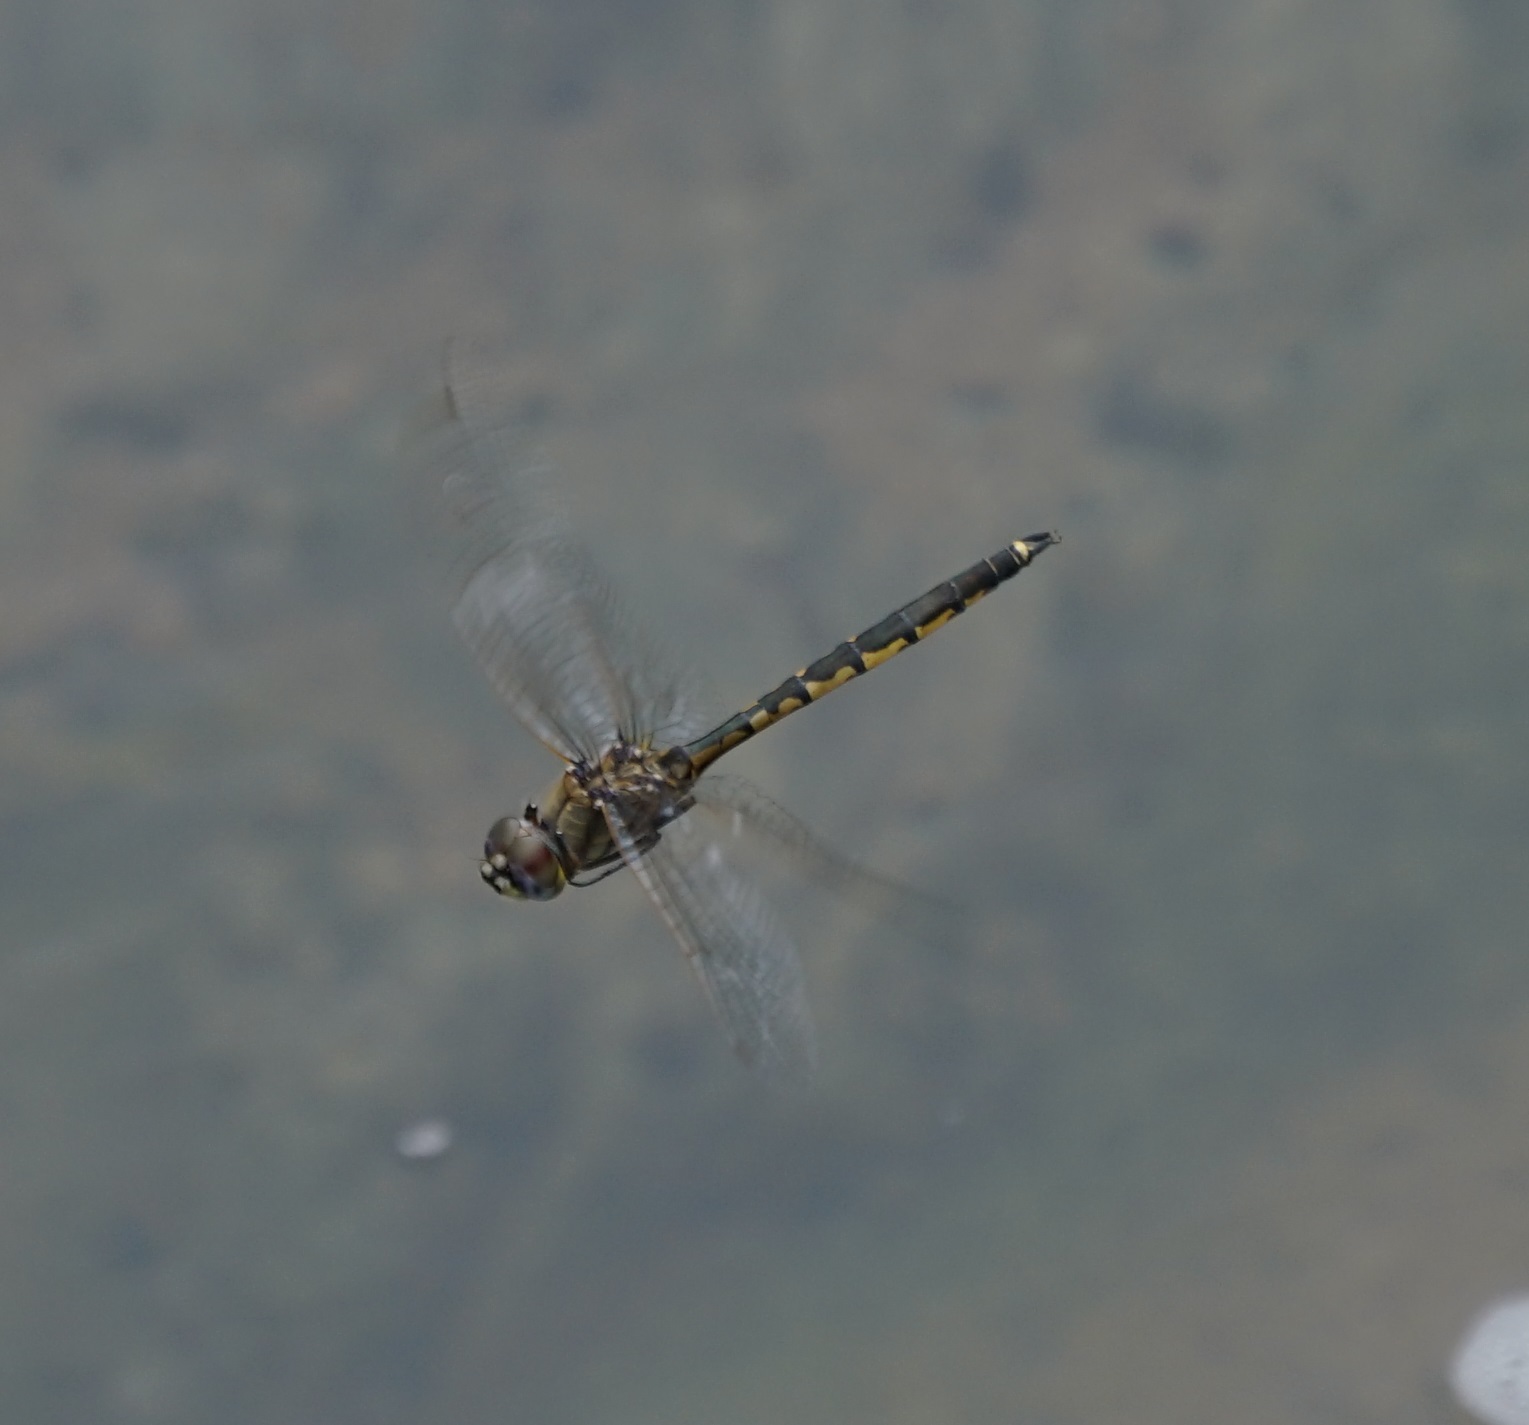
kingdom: Animalia
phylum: Arthropoda
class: Insecta
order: Odonata
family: Corduliidae
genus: Hemicordulia
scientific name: Hemicordulia tau
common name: Tau emerald
